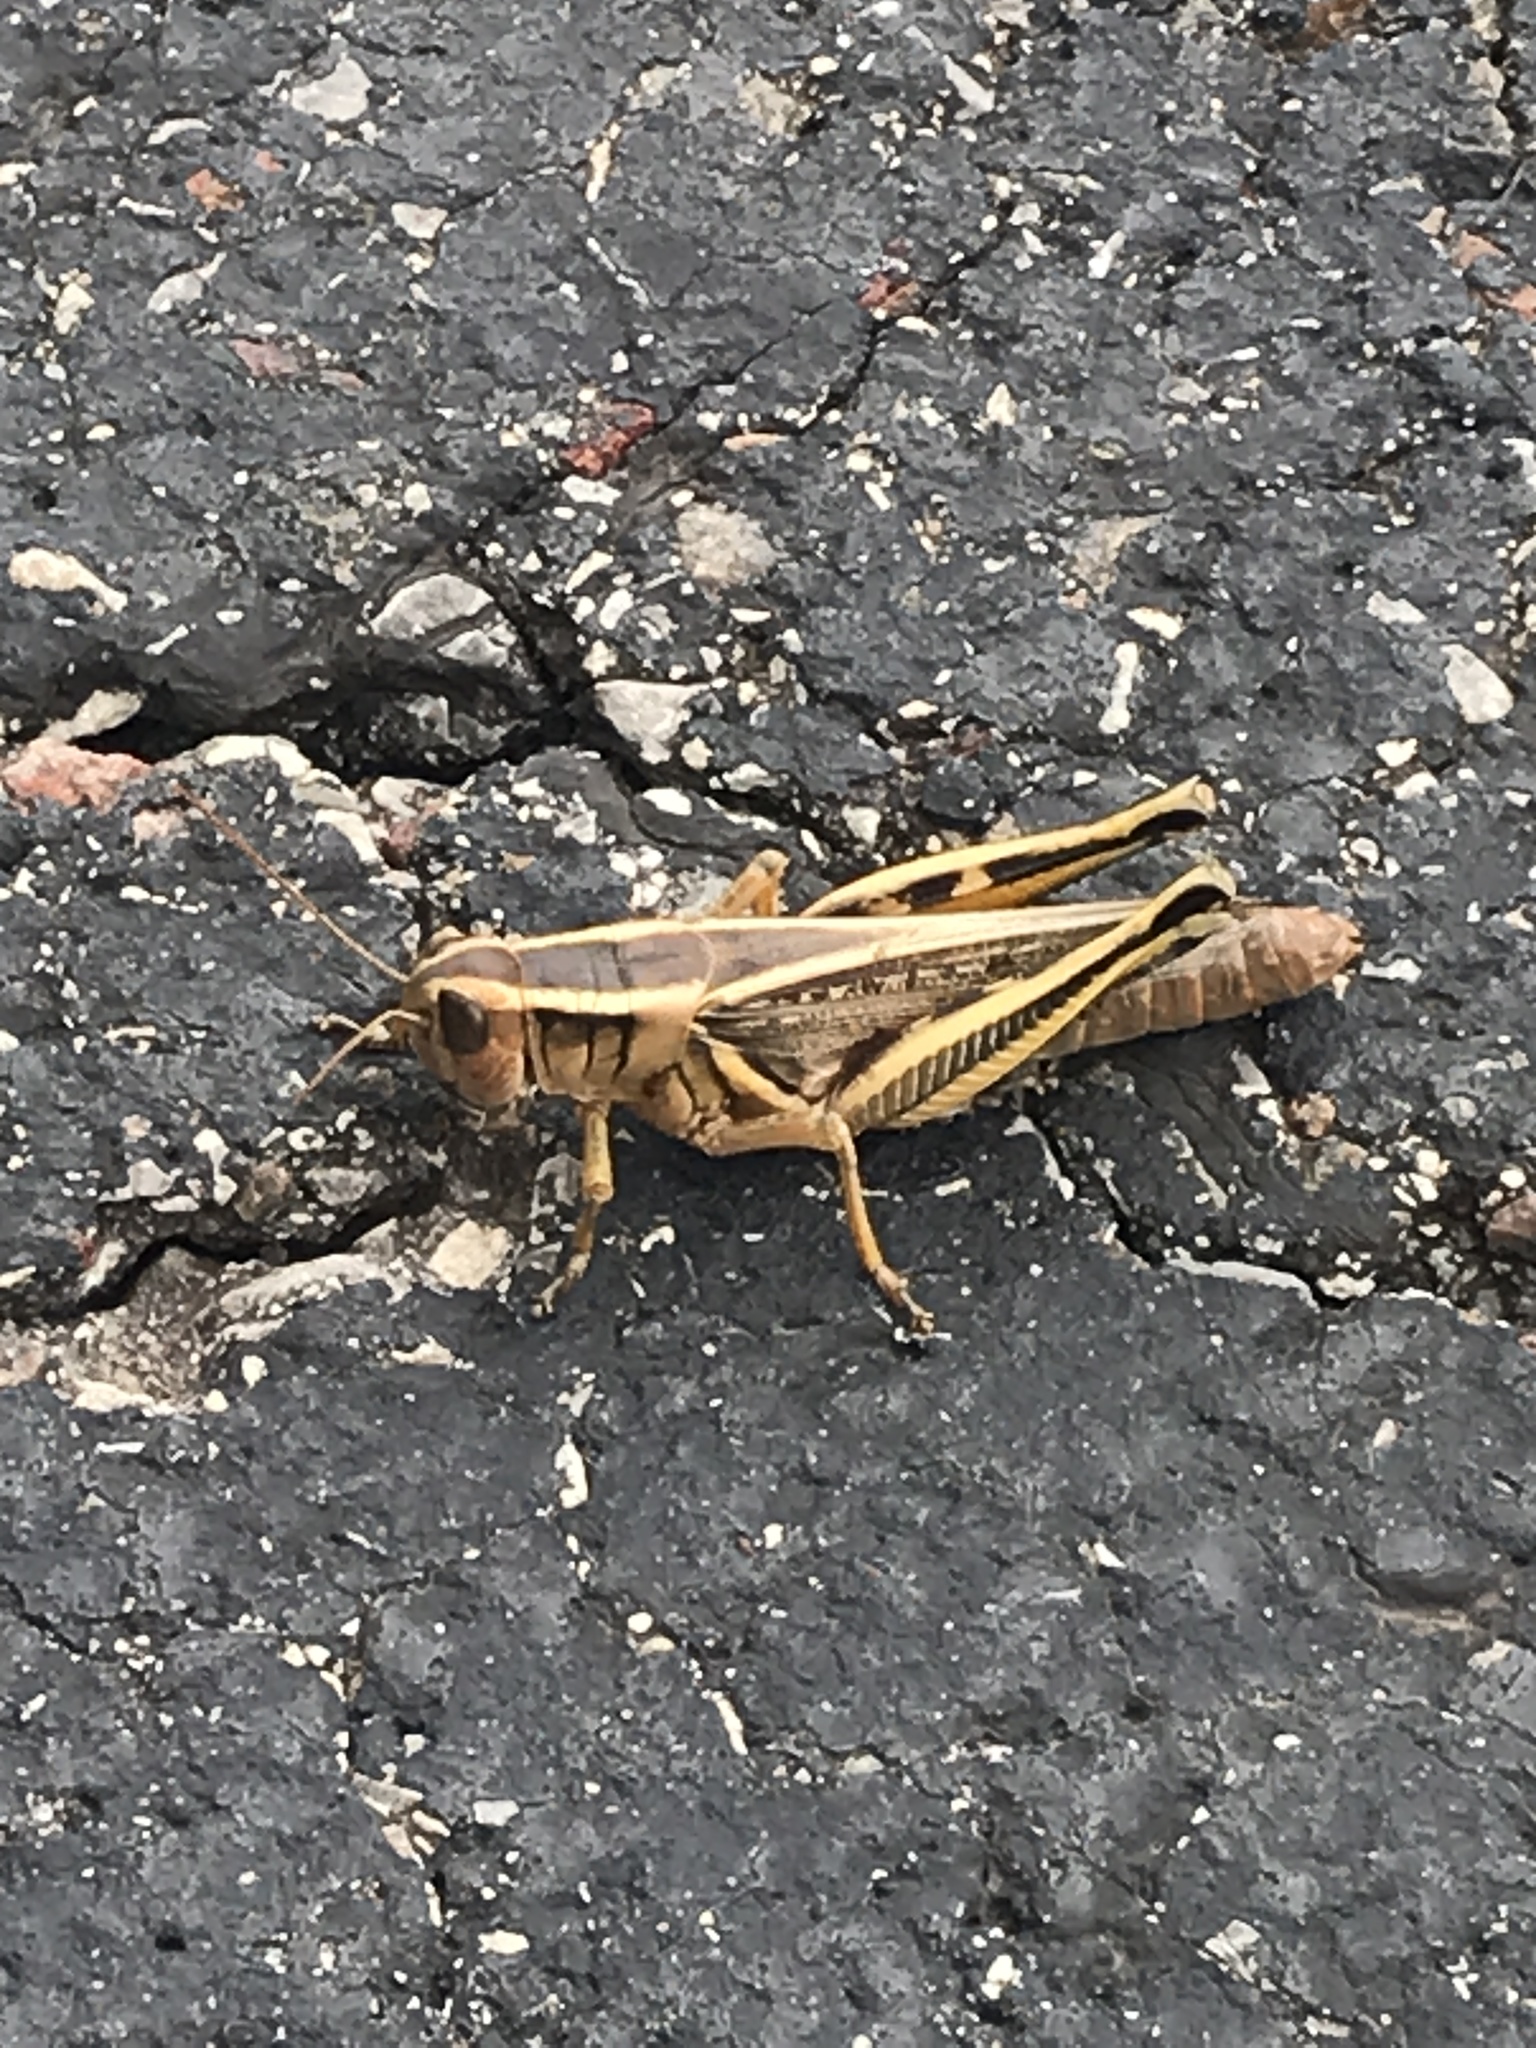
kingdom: Animalia
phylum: Arthropoda
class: Insecta
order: Orthoptera
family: Acrididae
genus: Melanoplus
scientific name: Melanoplus bivittatus
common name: Two-striped grasshopper
